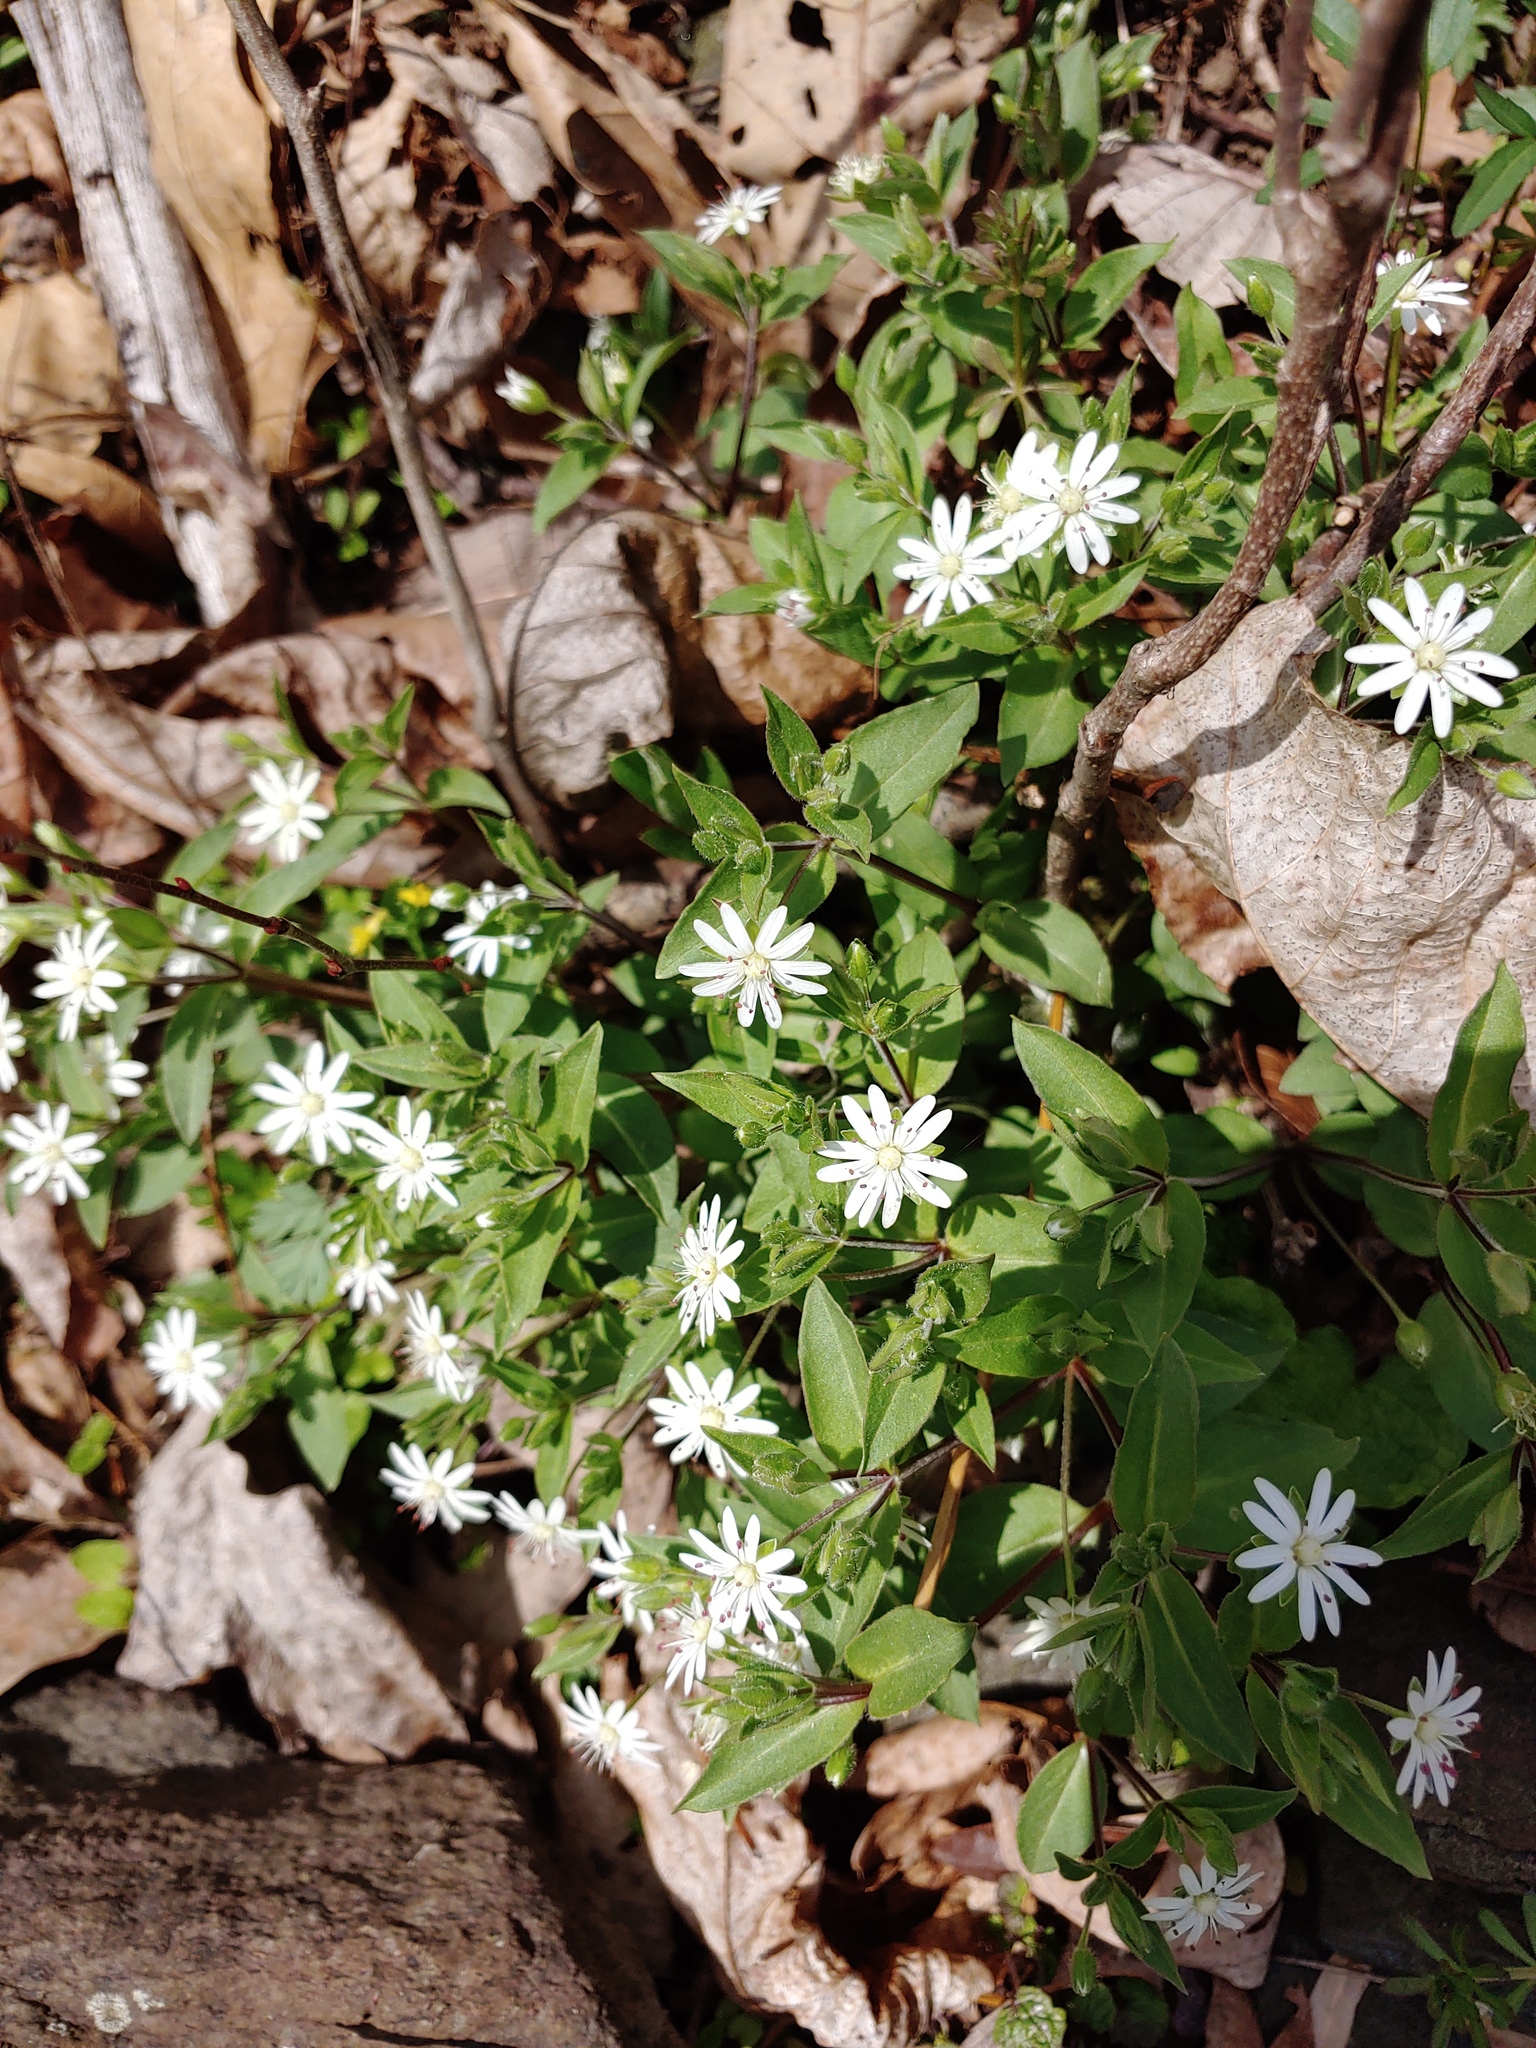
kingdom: Plantae
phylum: Tracheophyta
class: Magnoliopsida
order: Caryophyllales
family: Caryophyllaceae
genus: Stellaria
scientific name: Stellaria pubera
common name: Star chickweed
